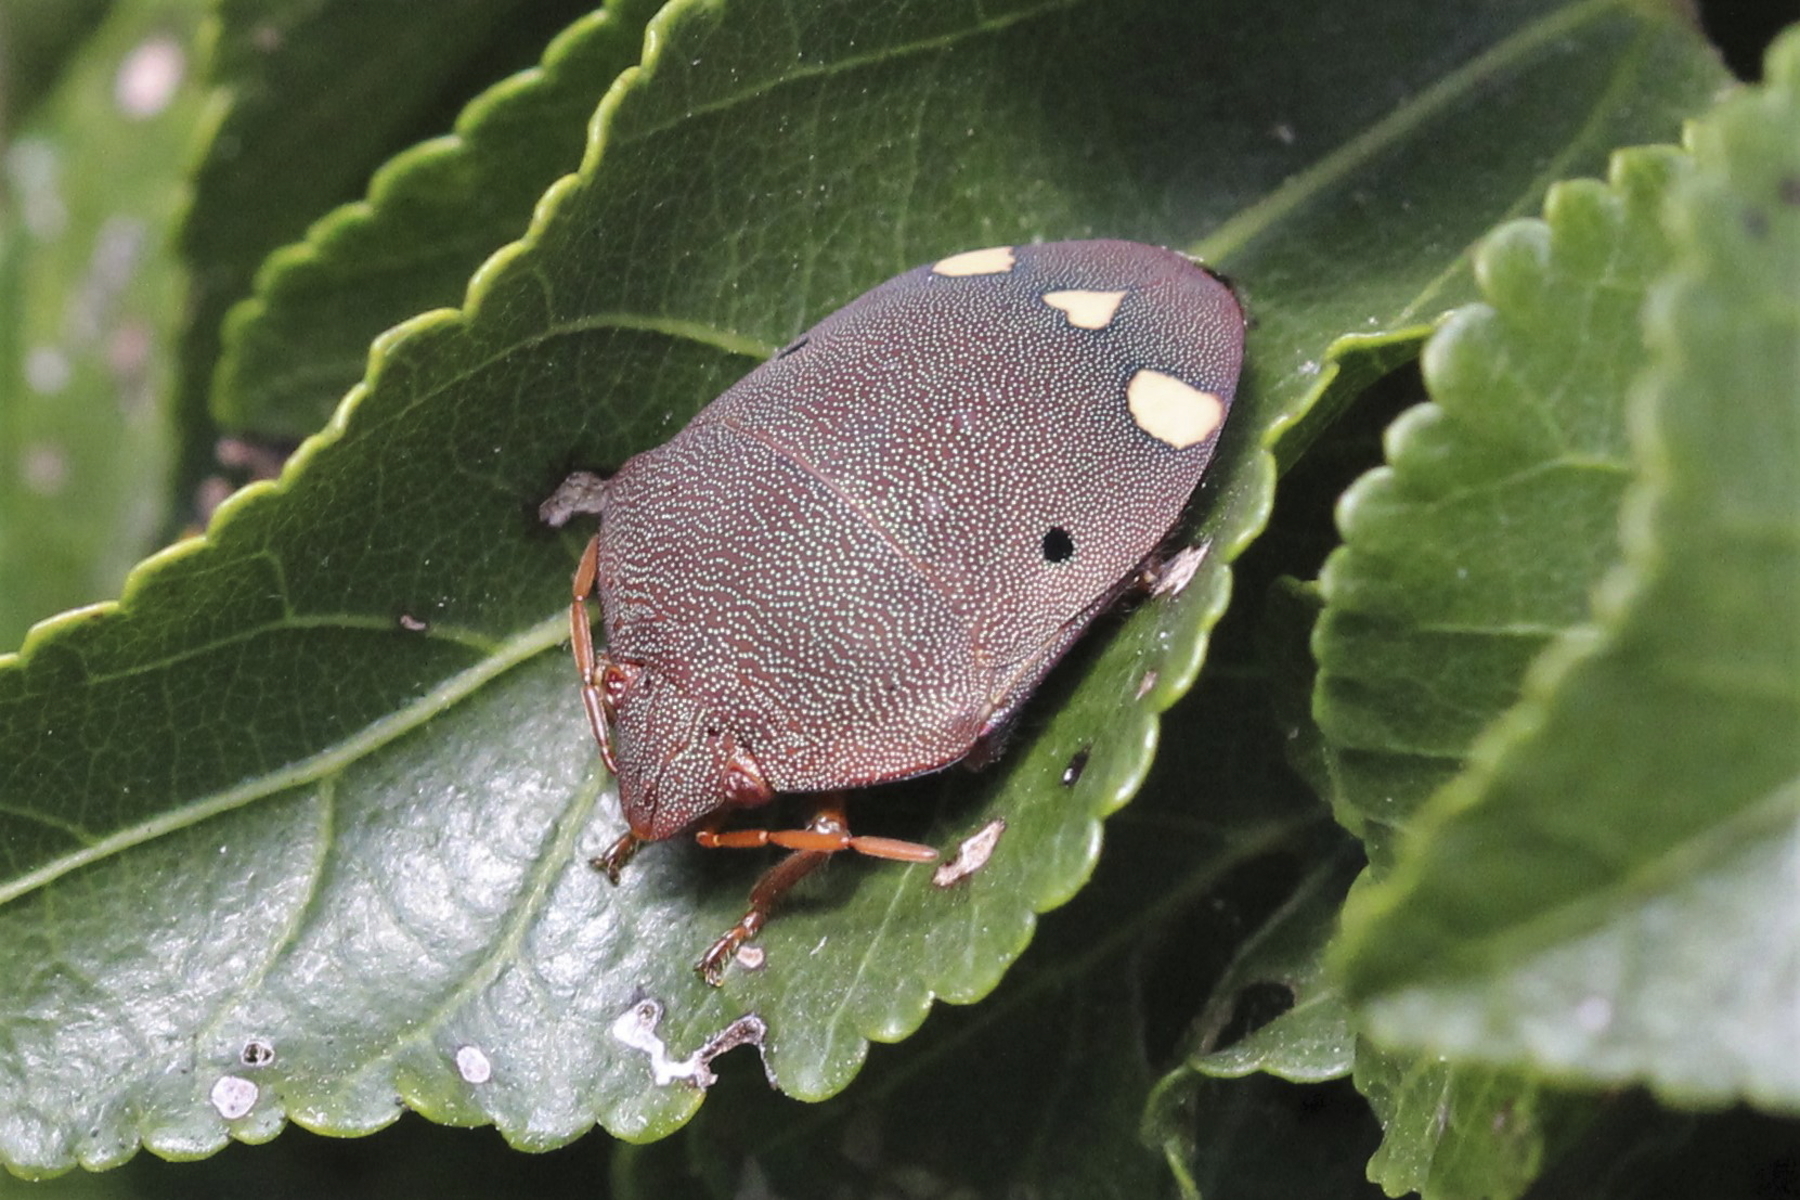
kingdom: Animalia
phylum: Arthropoda
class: Insecta
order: Hemiptera
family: Scutelleridae
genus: Solenosthedium
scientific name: Solenosthedium
